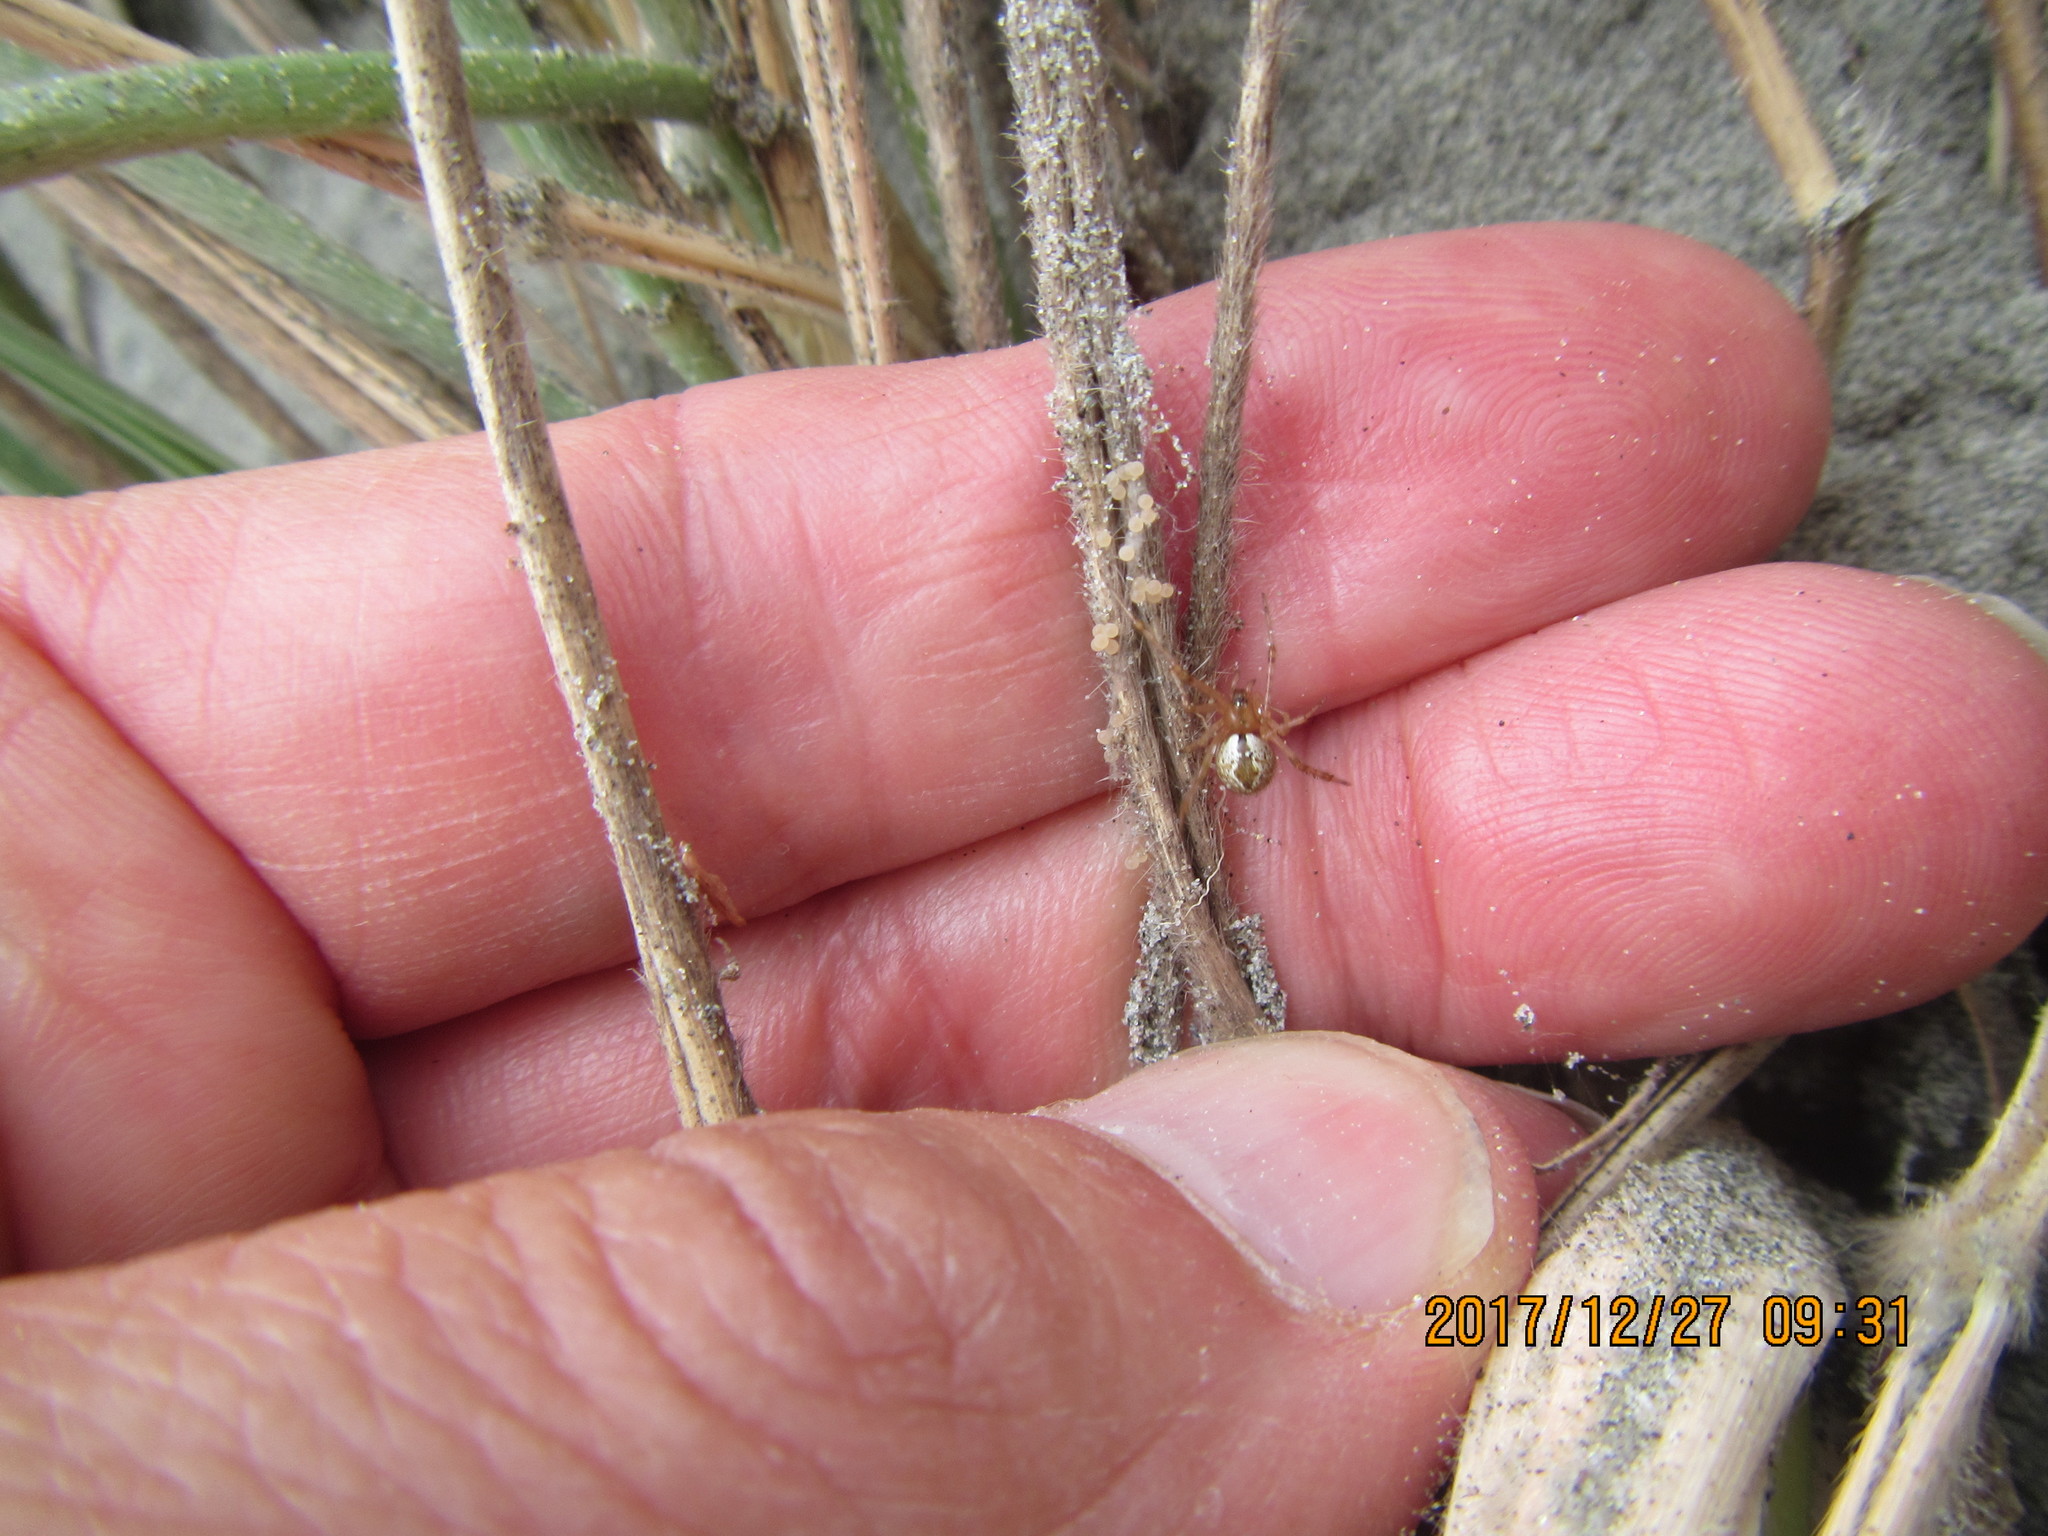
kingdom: Animalia
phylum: Arthropoda
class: Arachnida
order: Araneae
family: Theridiidae
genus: Cryptachaea
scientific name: Cryptachaea veruculata
